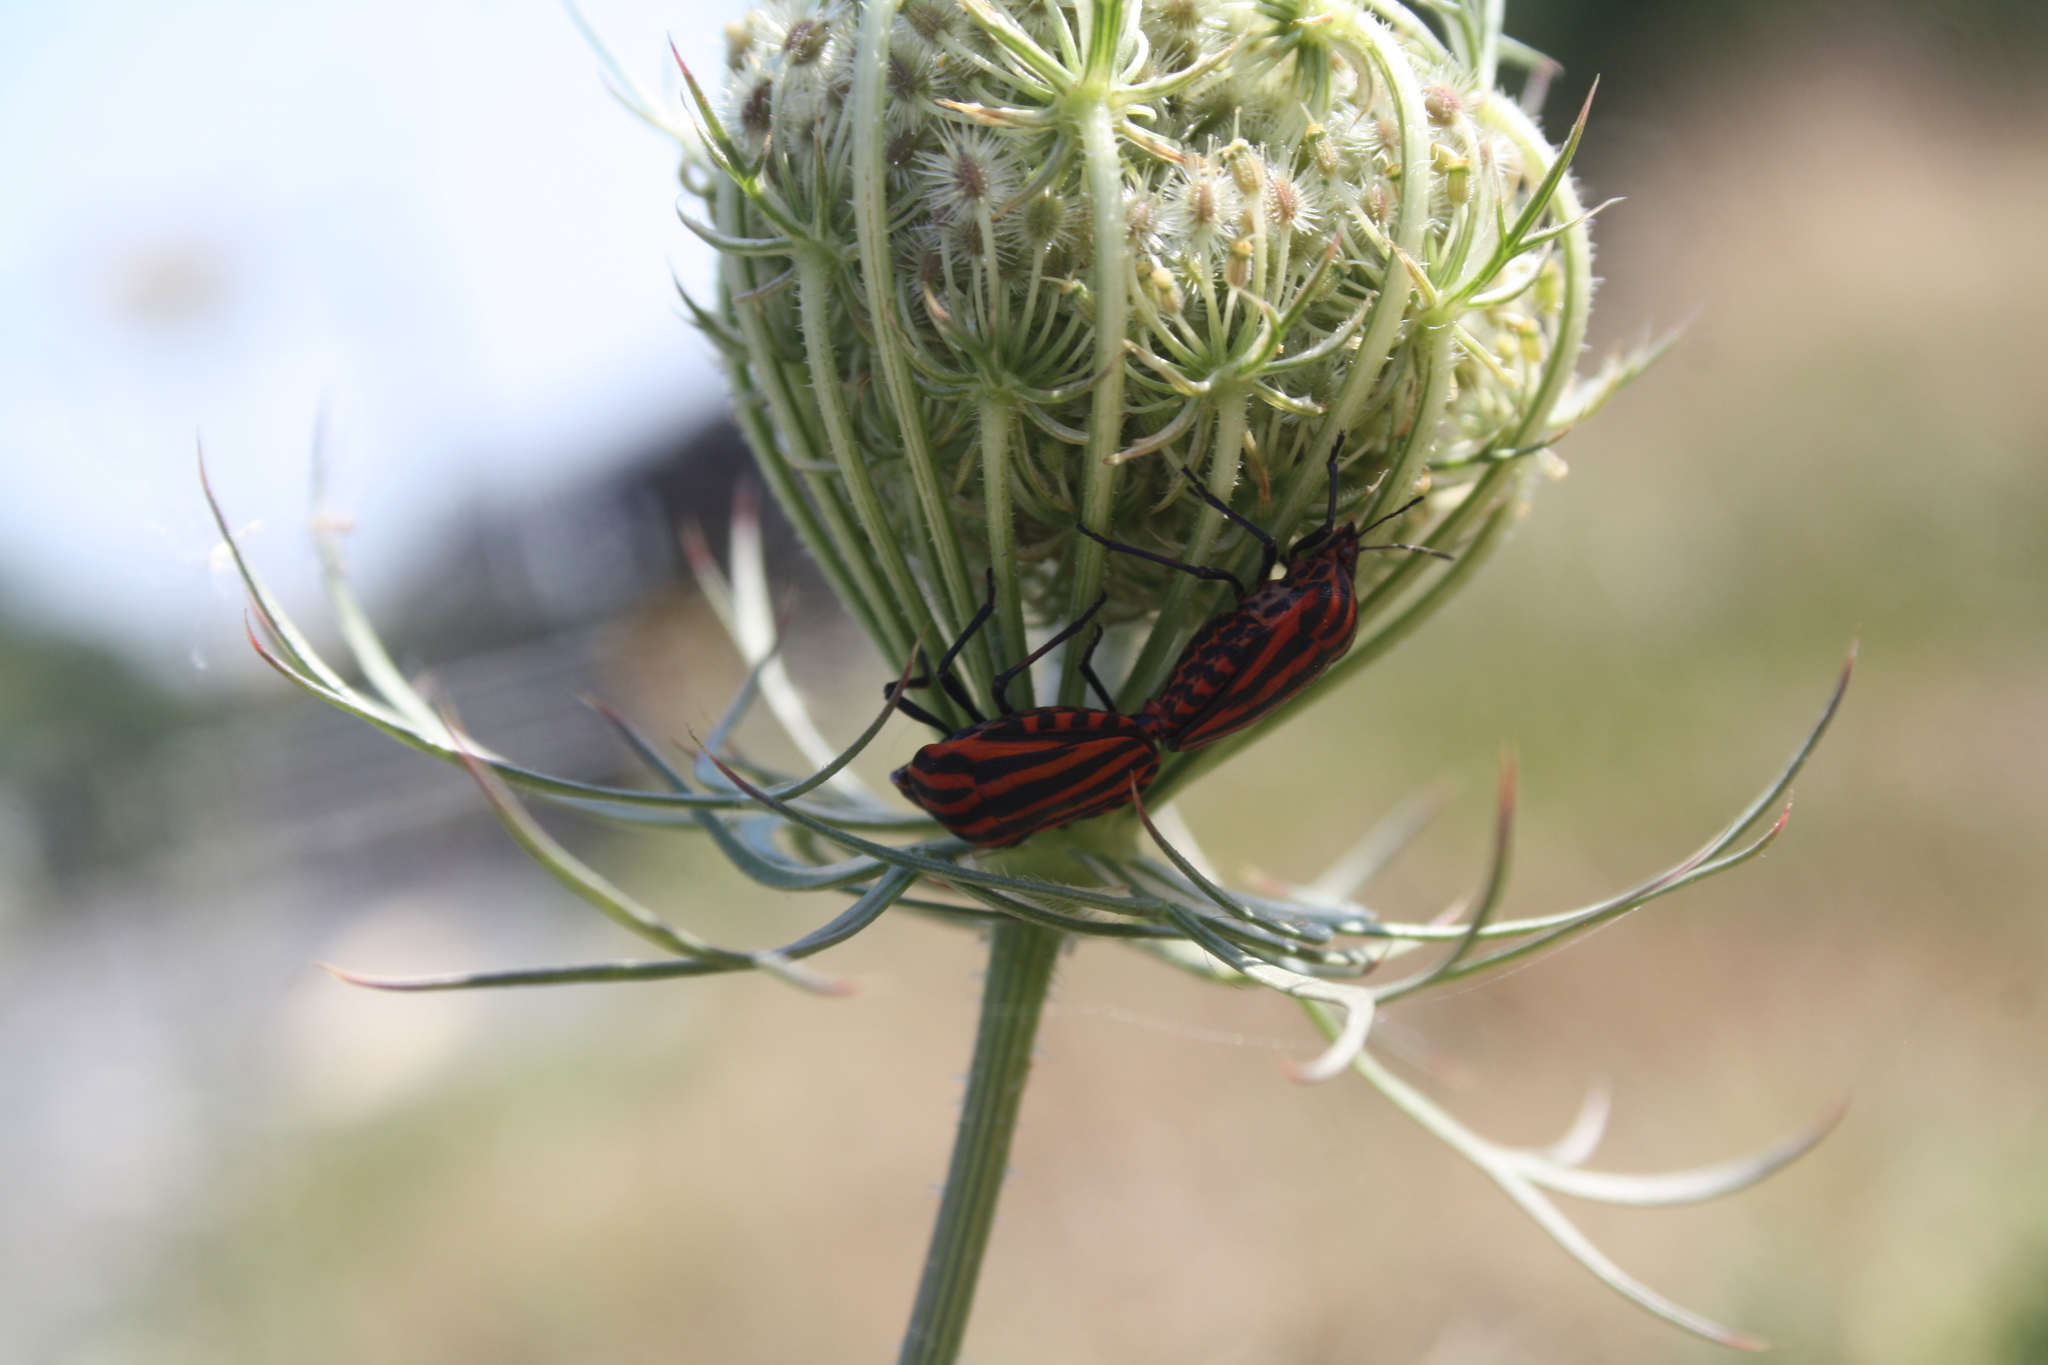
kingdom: Animalia
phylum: Arthropoda
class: Insecta
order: Hemiptera
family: Pentatomidae
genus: Graphosoma
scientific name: Graphosoma italicum
